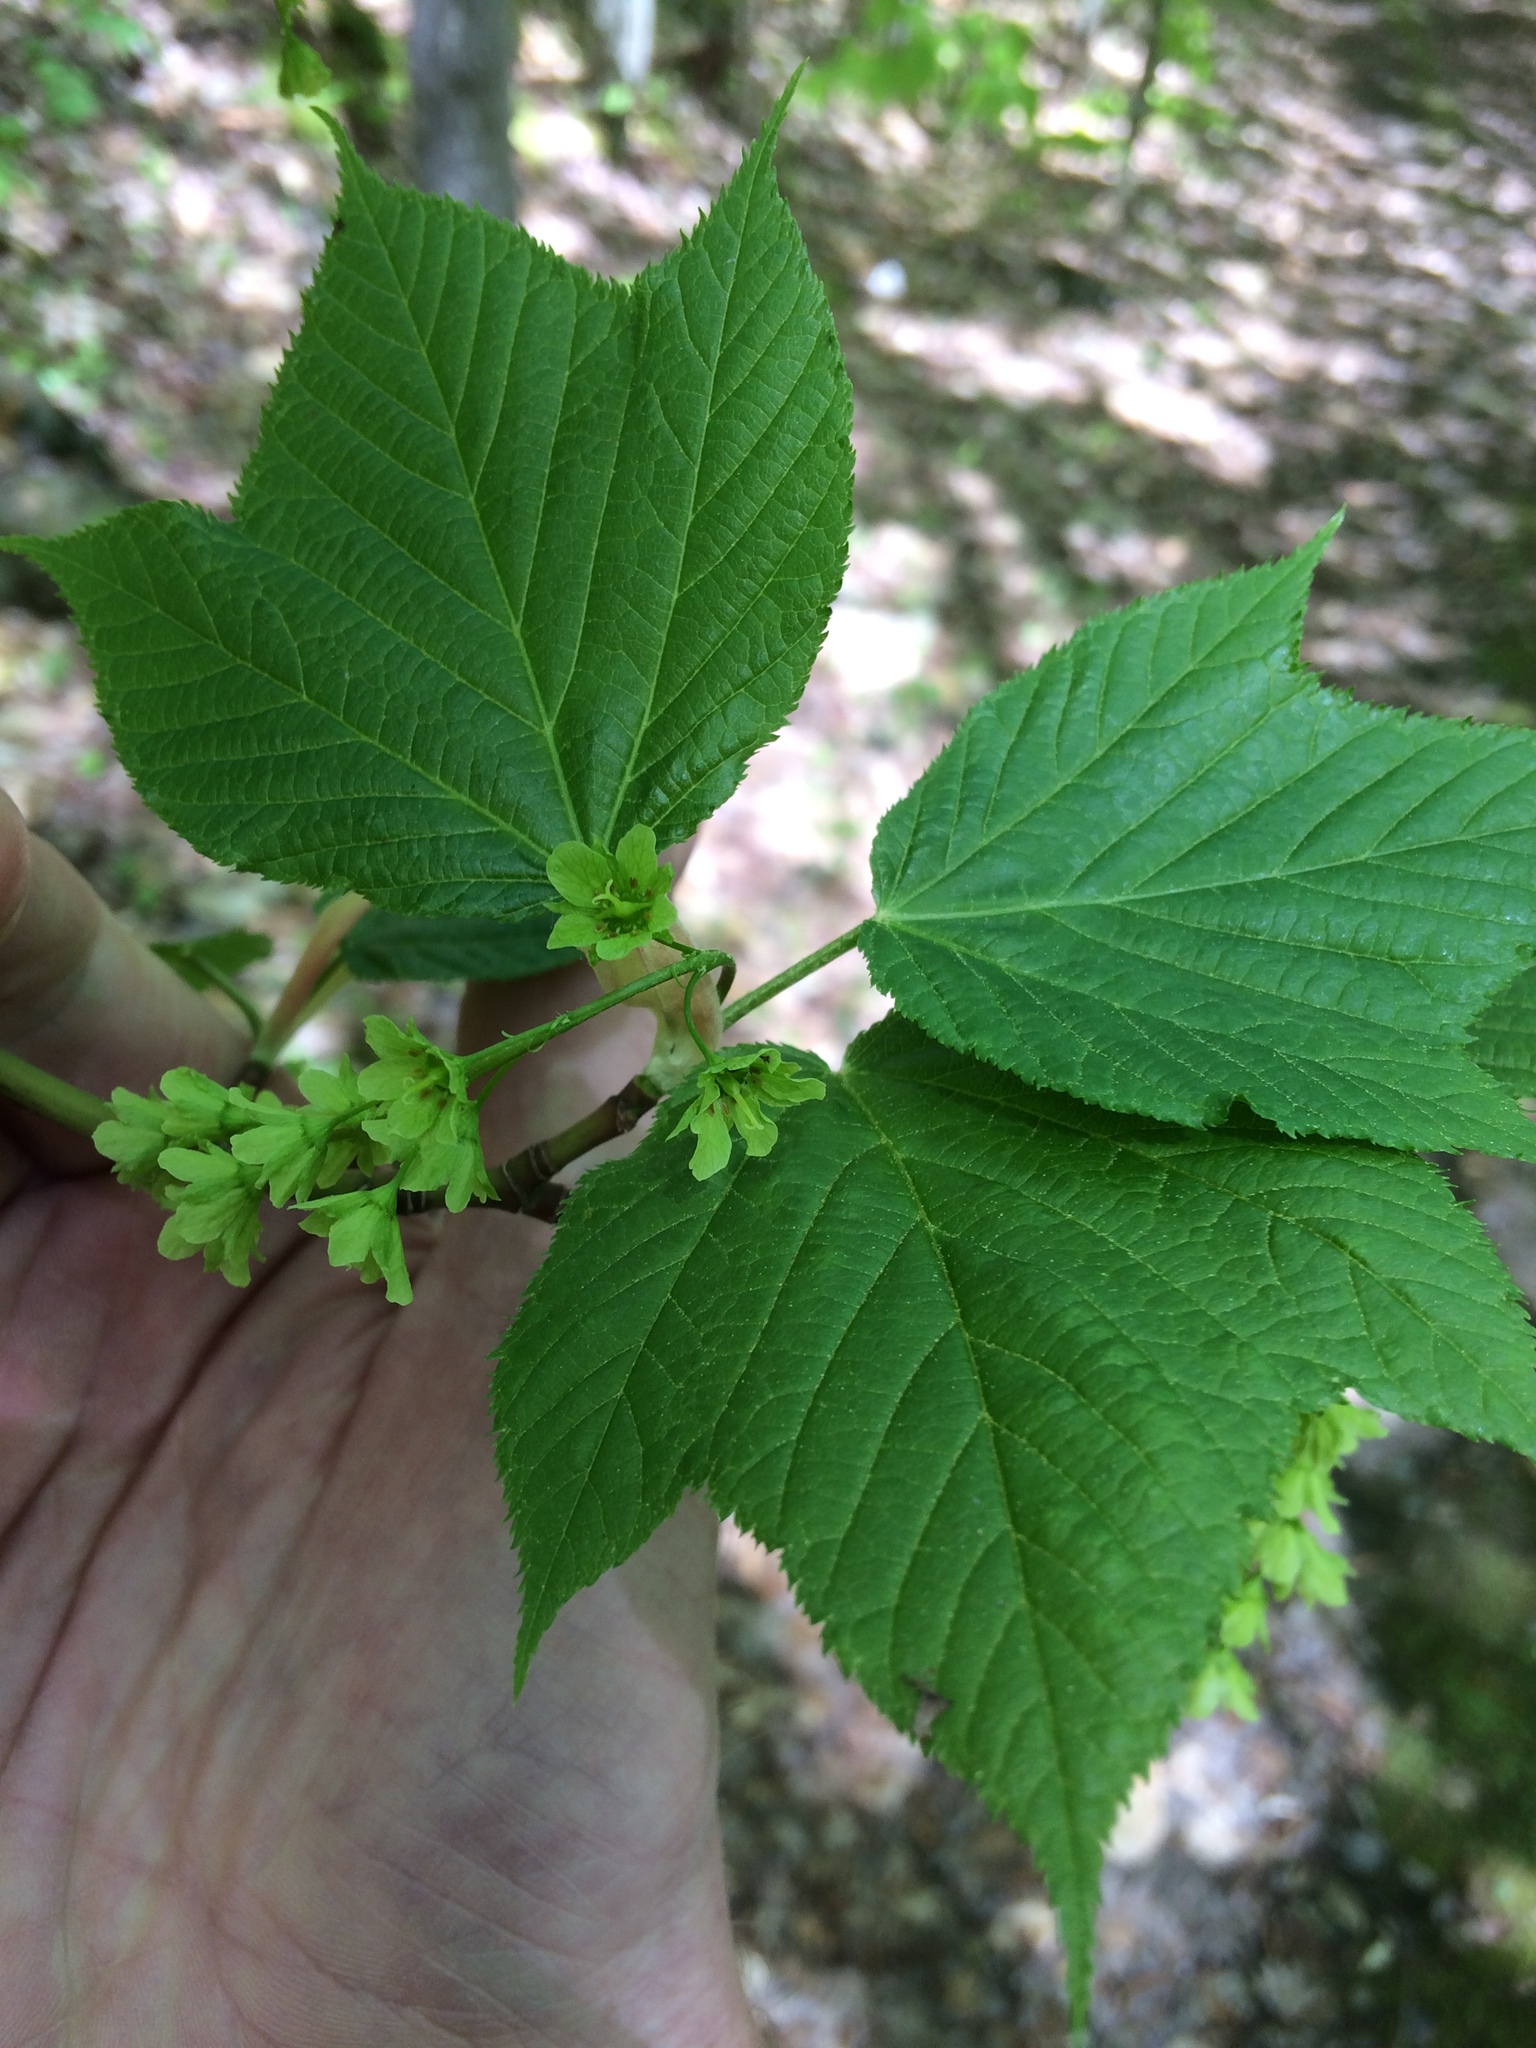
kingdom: Plantae
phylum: Tracheophyta
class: Magnoliopsida
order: Sapindales
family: Sapindaceae
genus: Acer
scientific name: Acer pensylvanicum
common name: Moosewood
